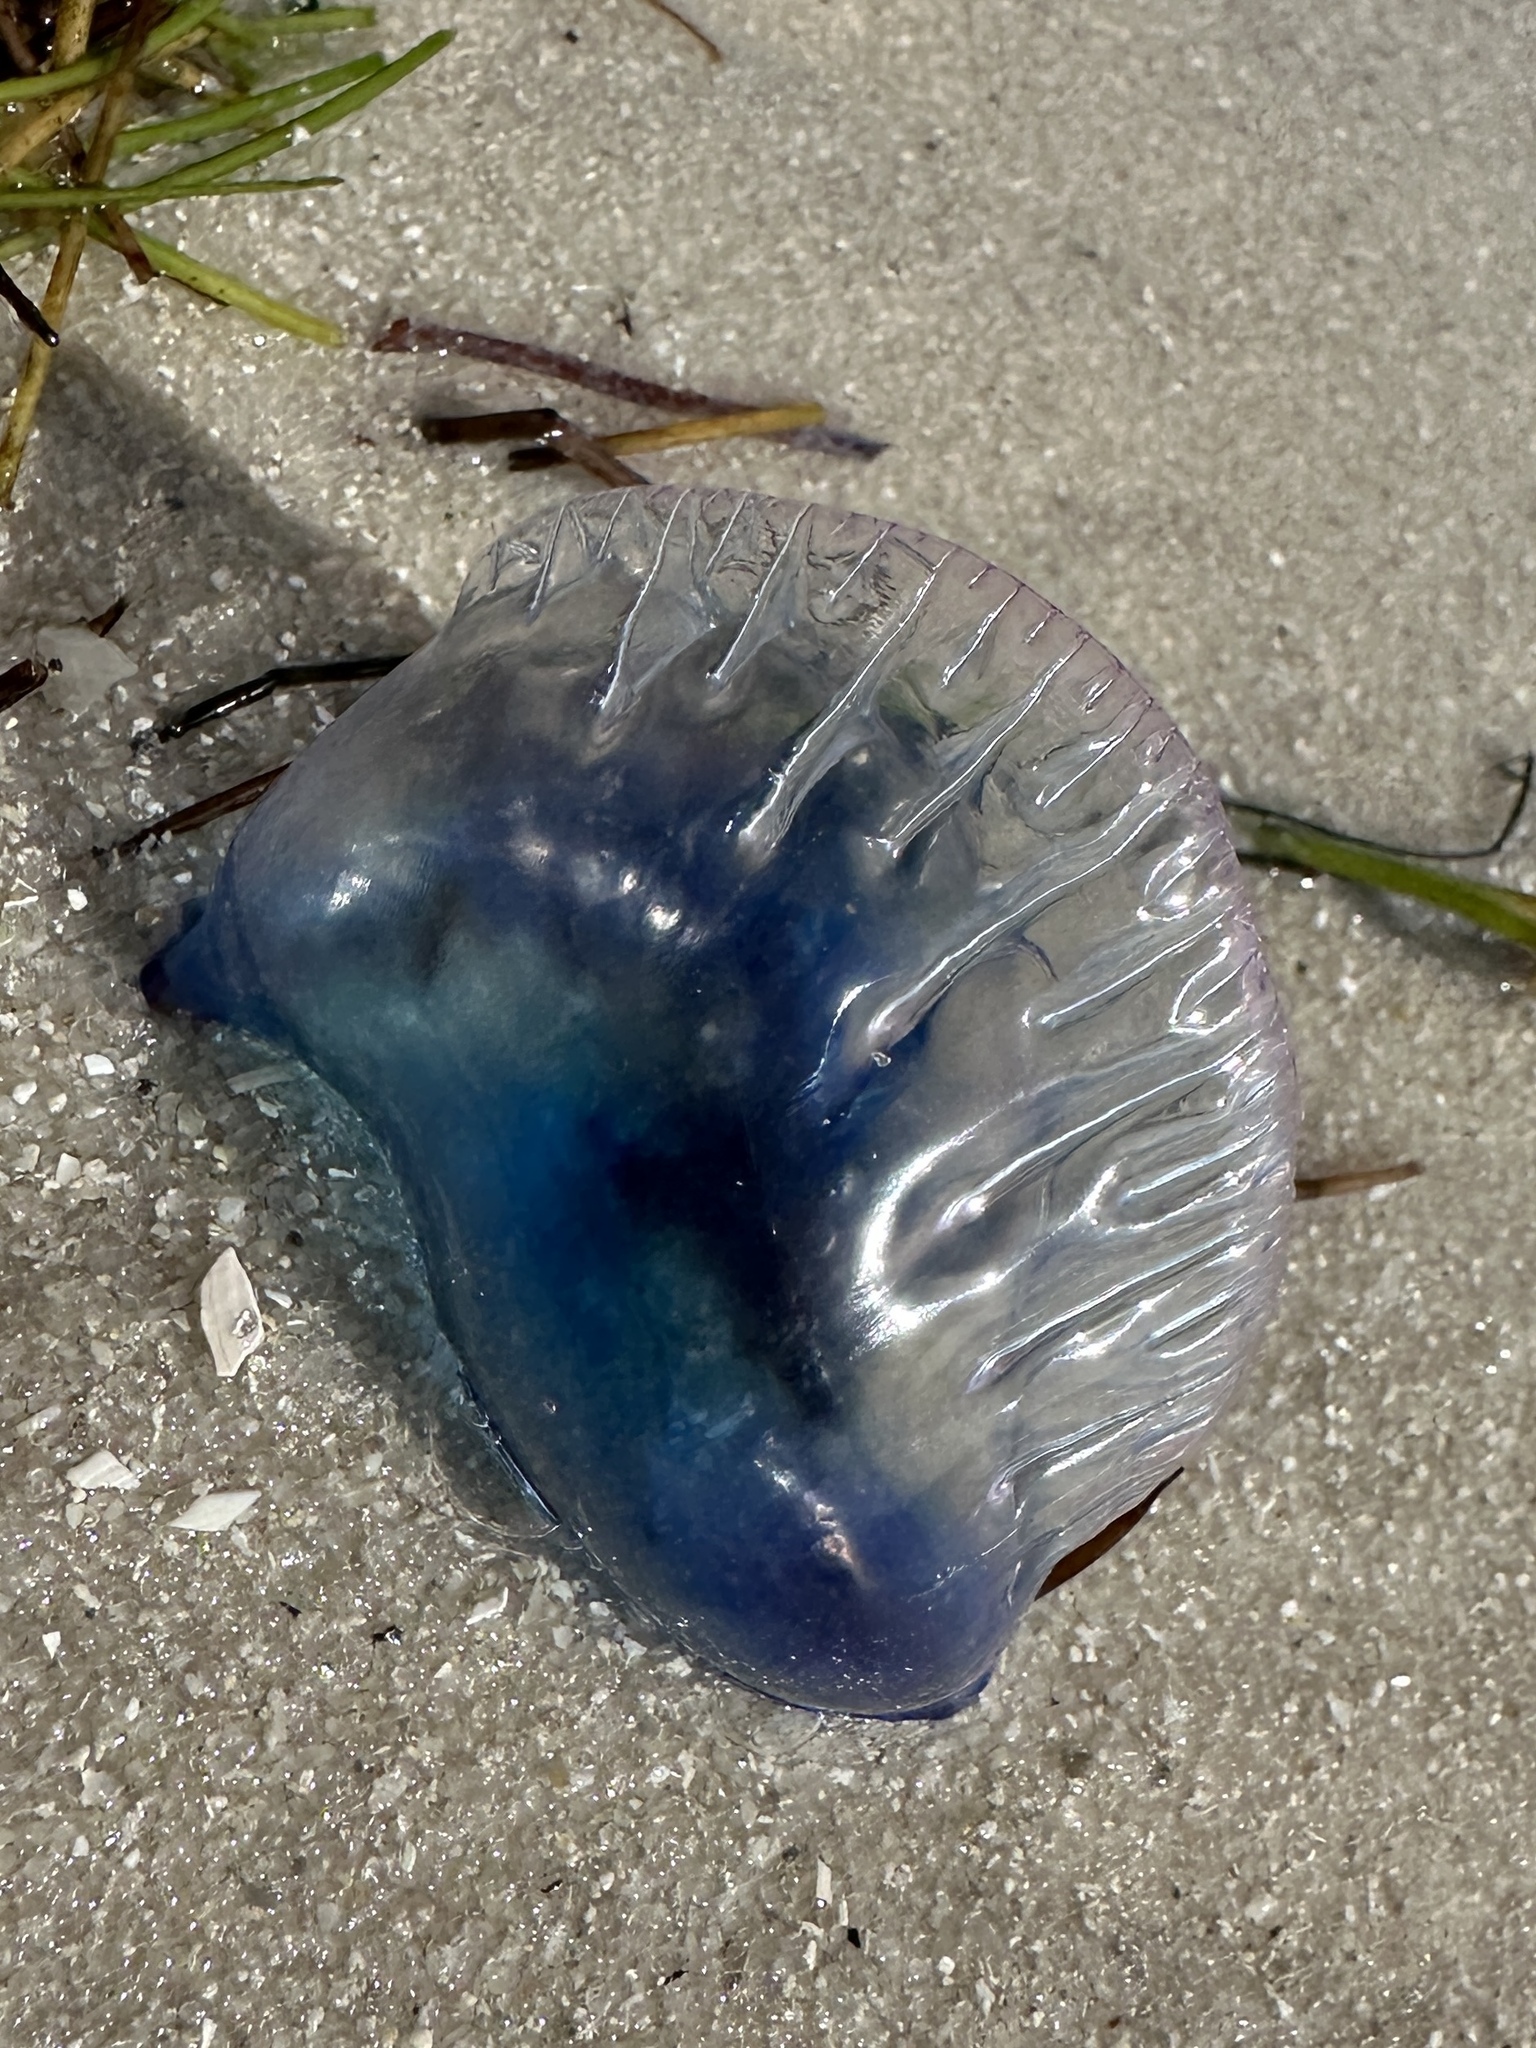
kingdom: Animalia
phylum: Cnidaria
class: Hydrozoa
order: Siphonophorae
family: Physaliidae
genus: Physalia
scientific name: Physalia physalis
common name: Portuguese man-of-war
